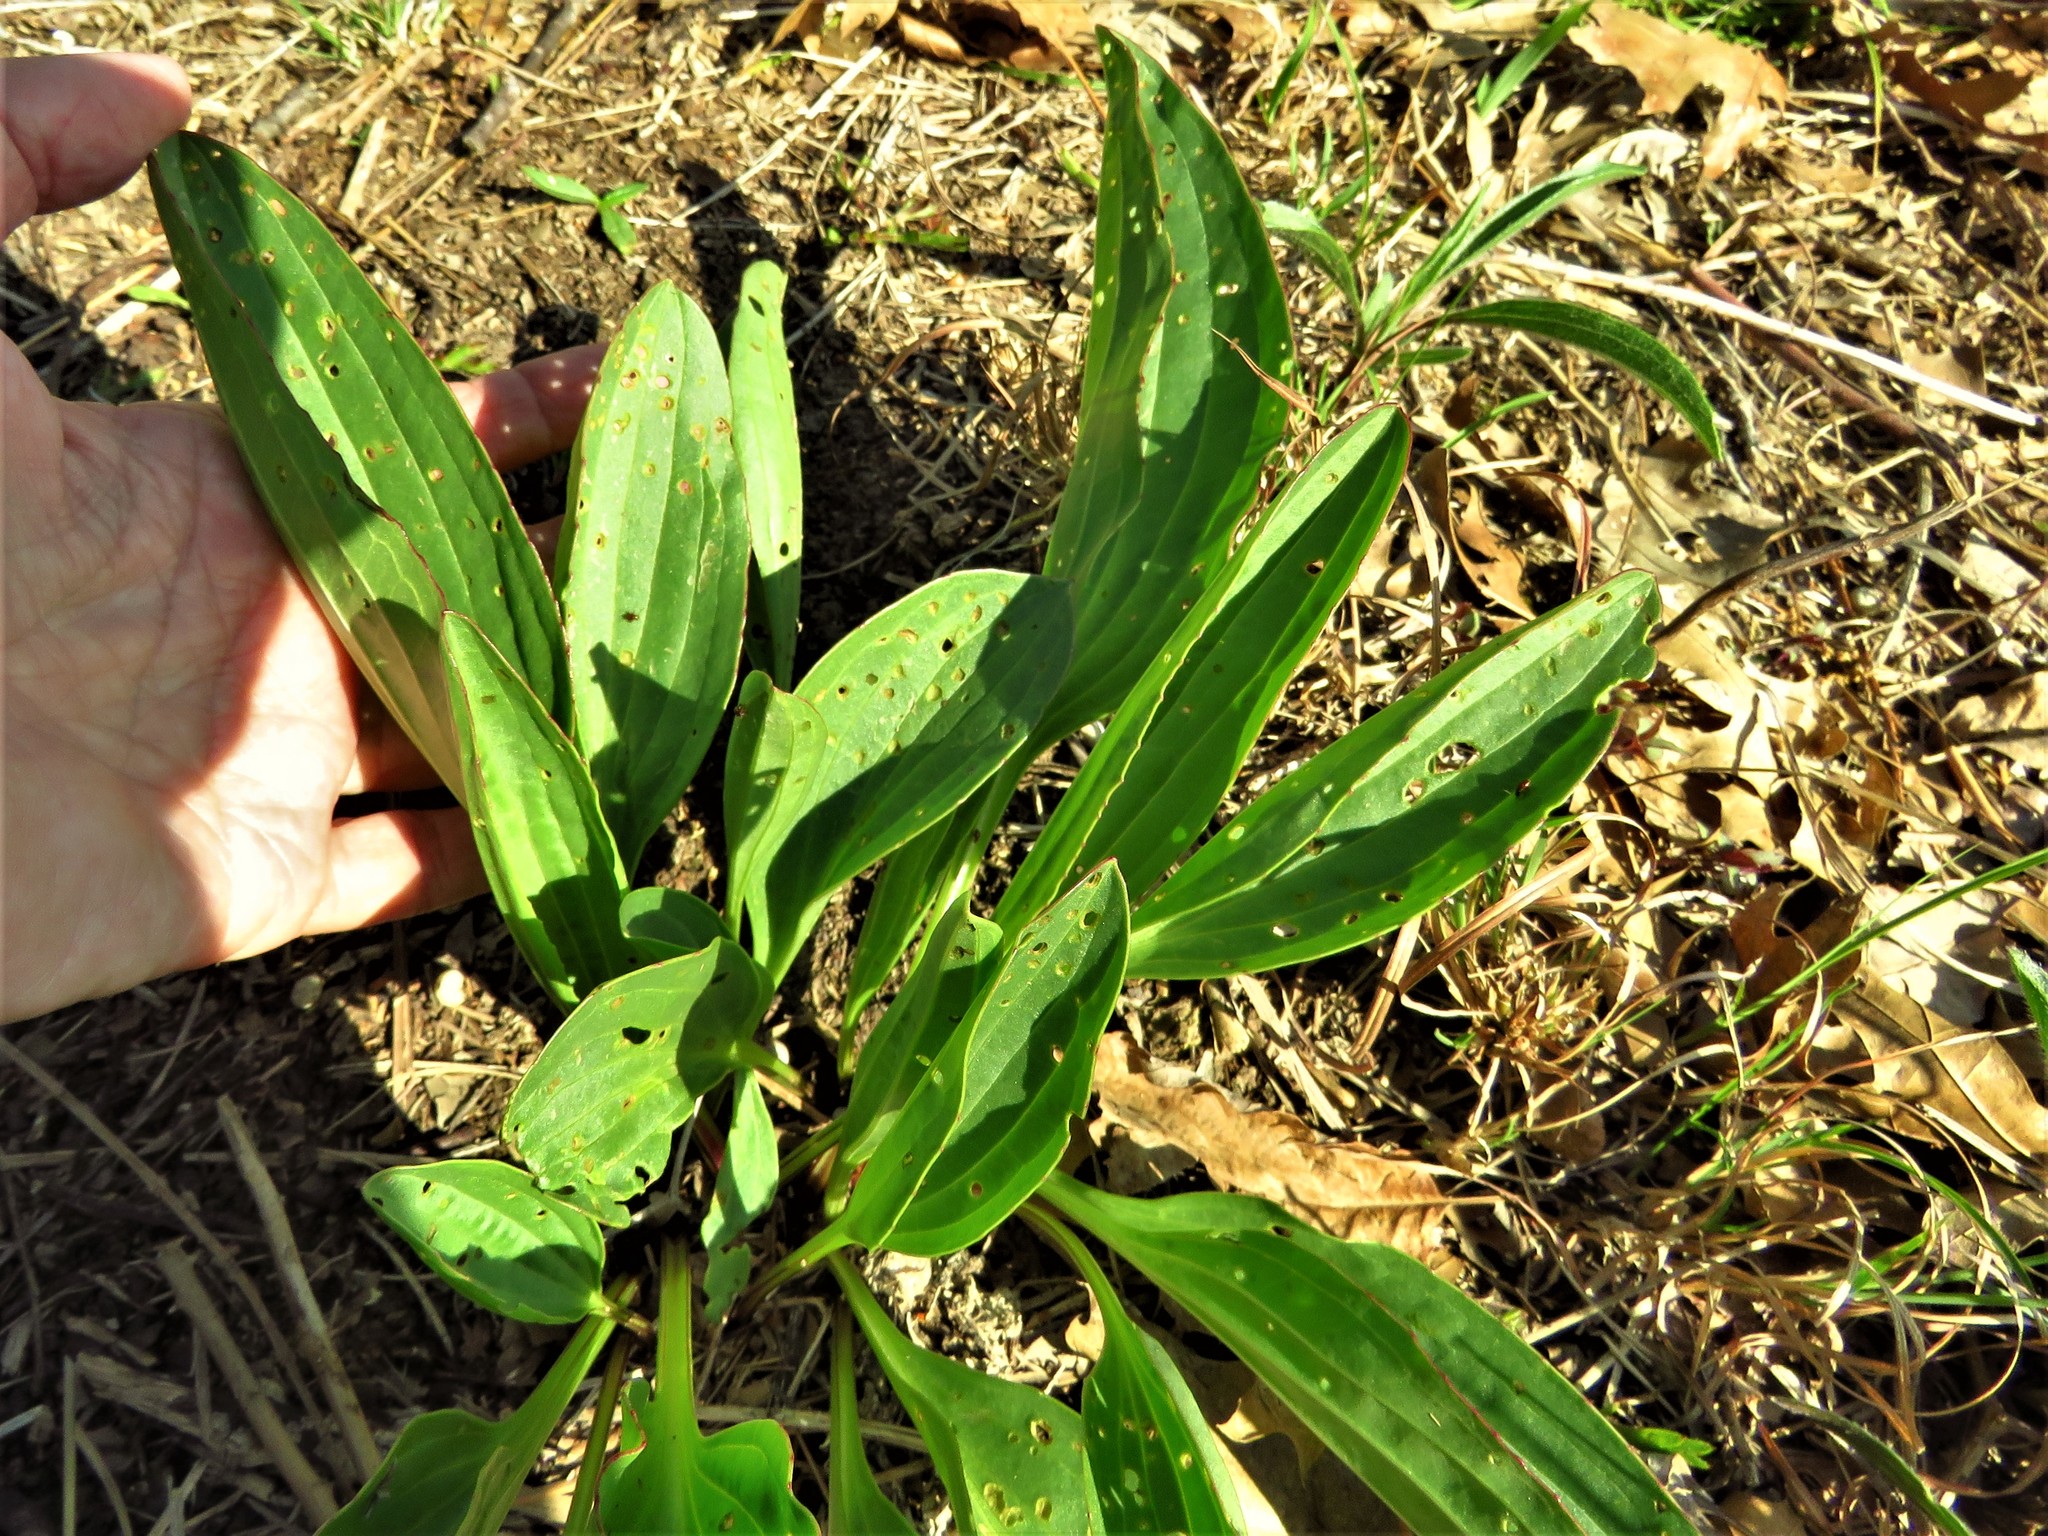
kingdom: Plantae
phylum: Tracheophyta
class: Magnoliopsida
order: Asterales
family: Asteraceae
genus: Arnoglossum
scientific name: Arnoglossum plantagineum
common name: Groove-stemmed indian-plantain
